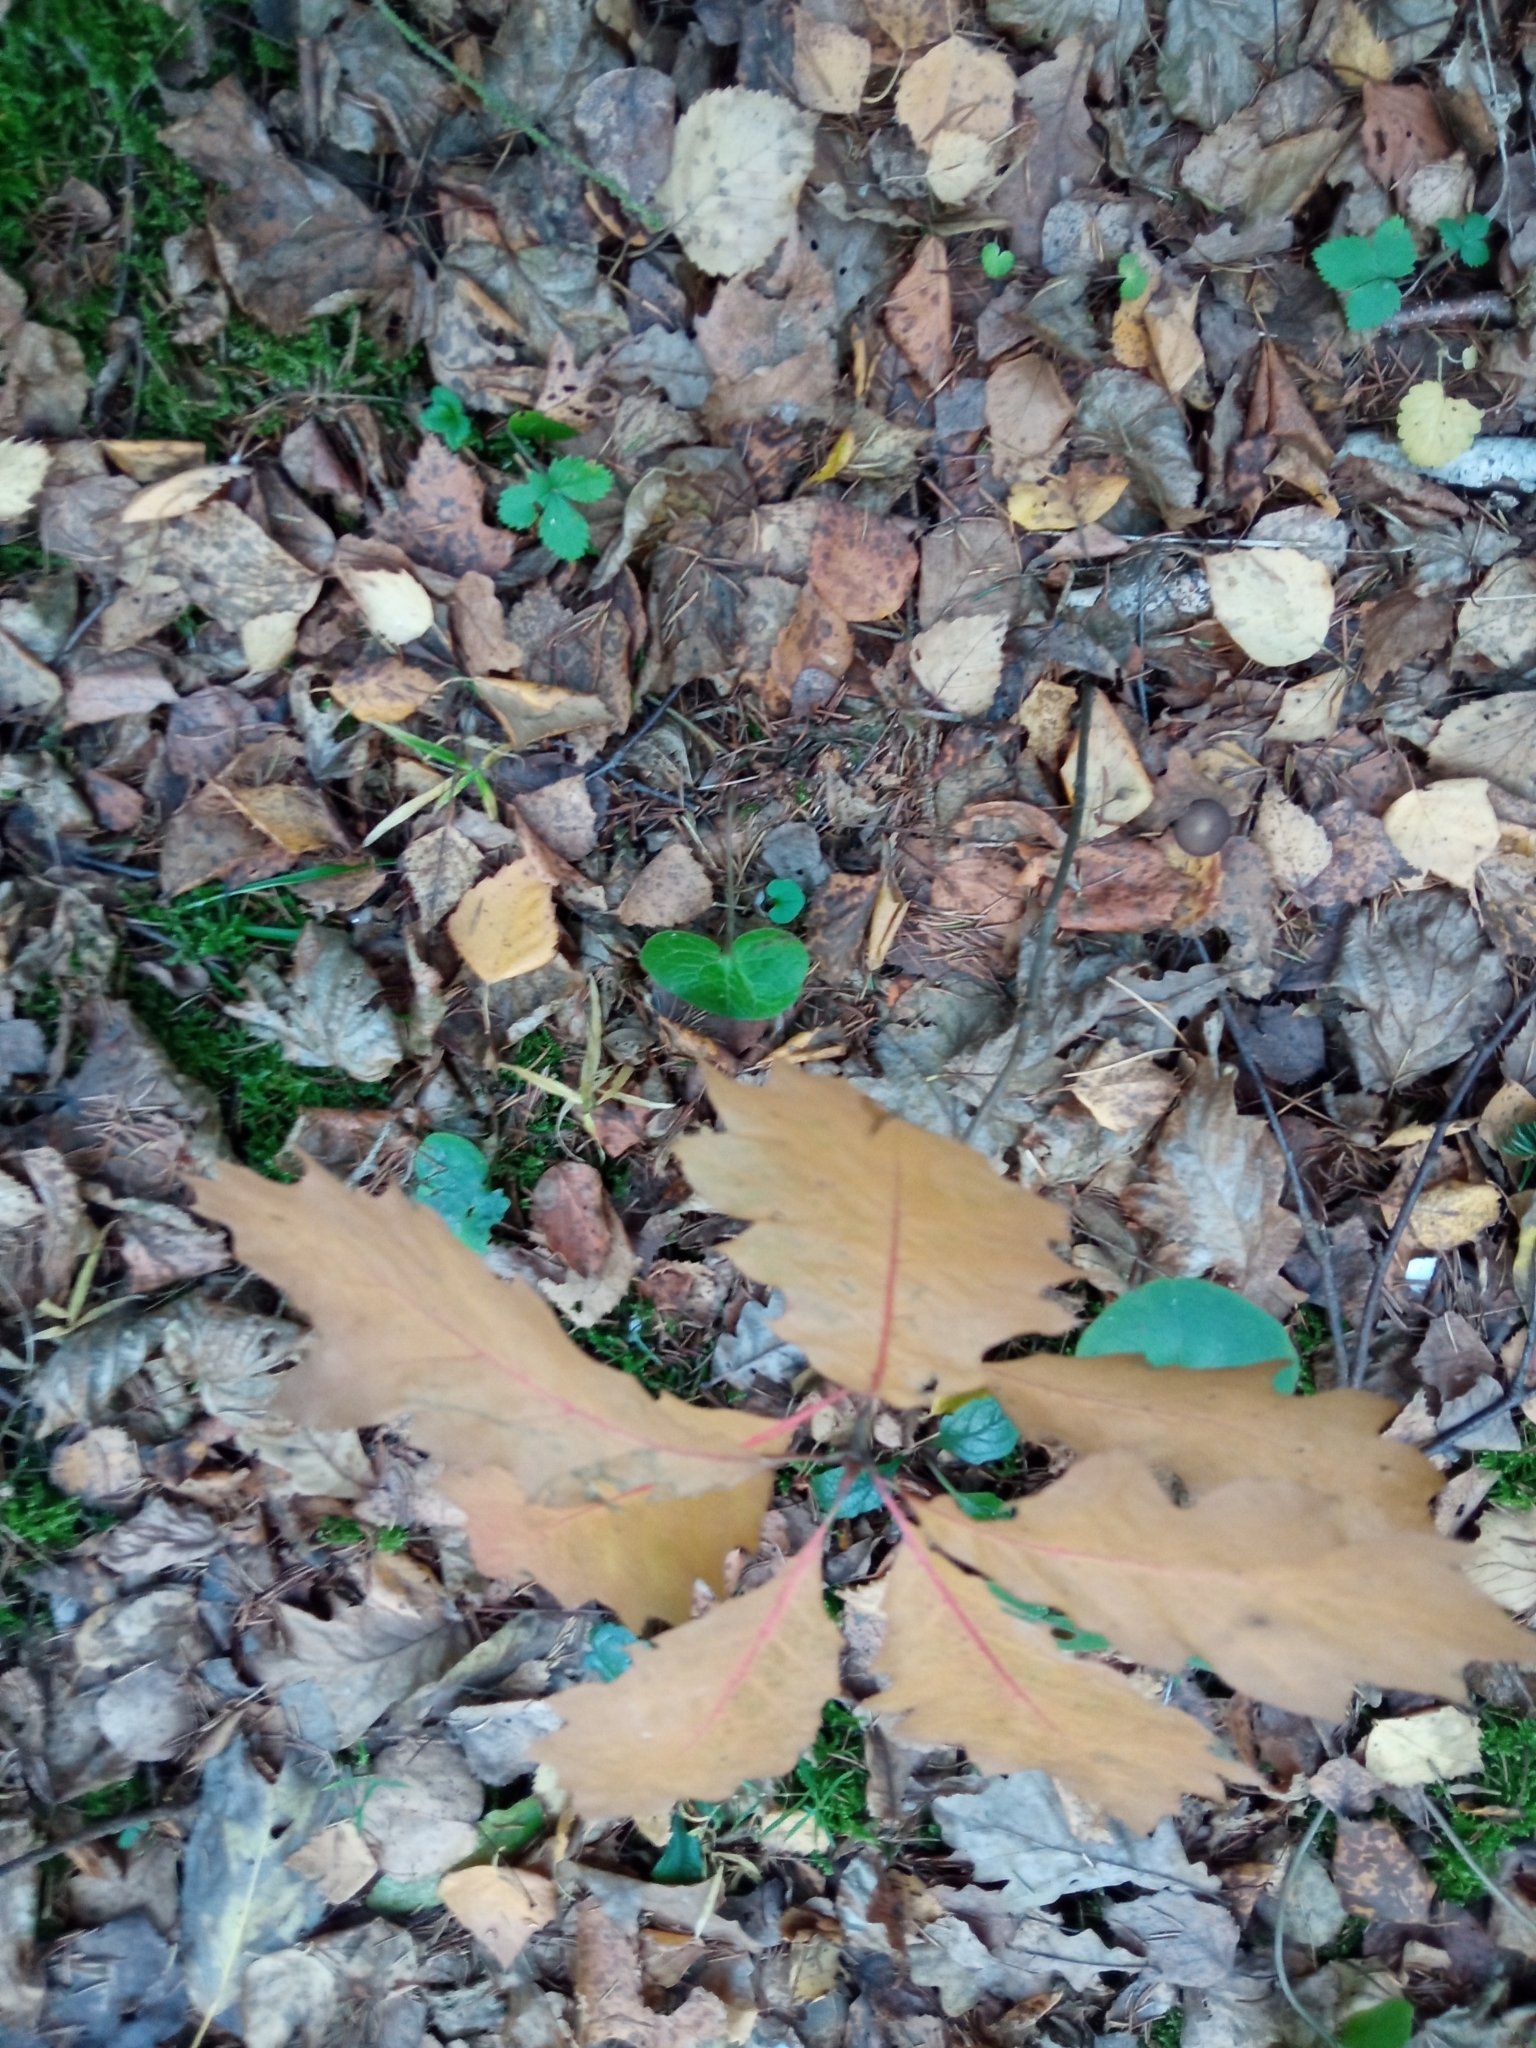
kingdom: Plantae
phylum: Tracheophyta
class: Magnoliopsida
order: Fagales
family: Fagaceae
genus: Quercus
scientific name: Quercus rubra
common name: Red oak
